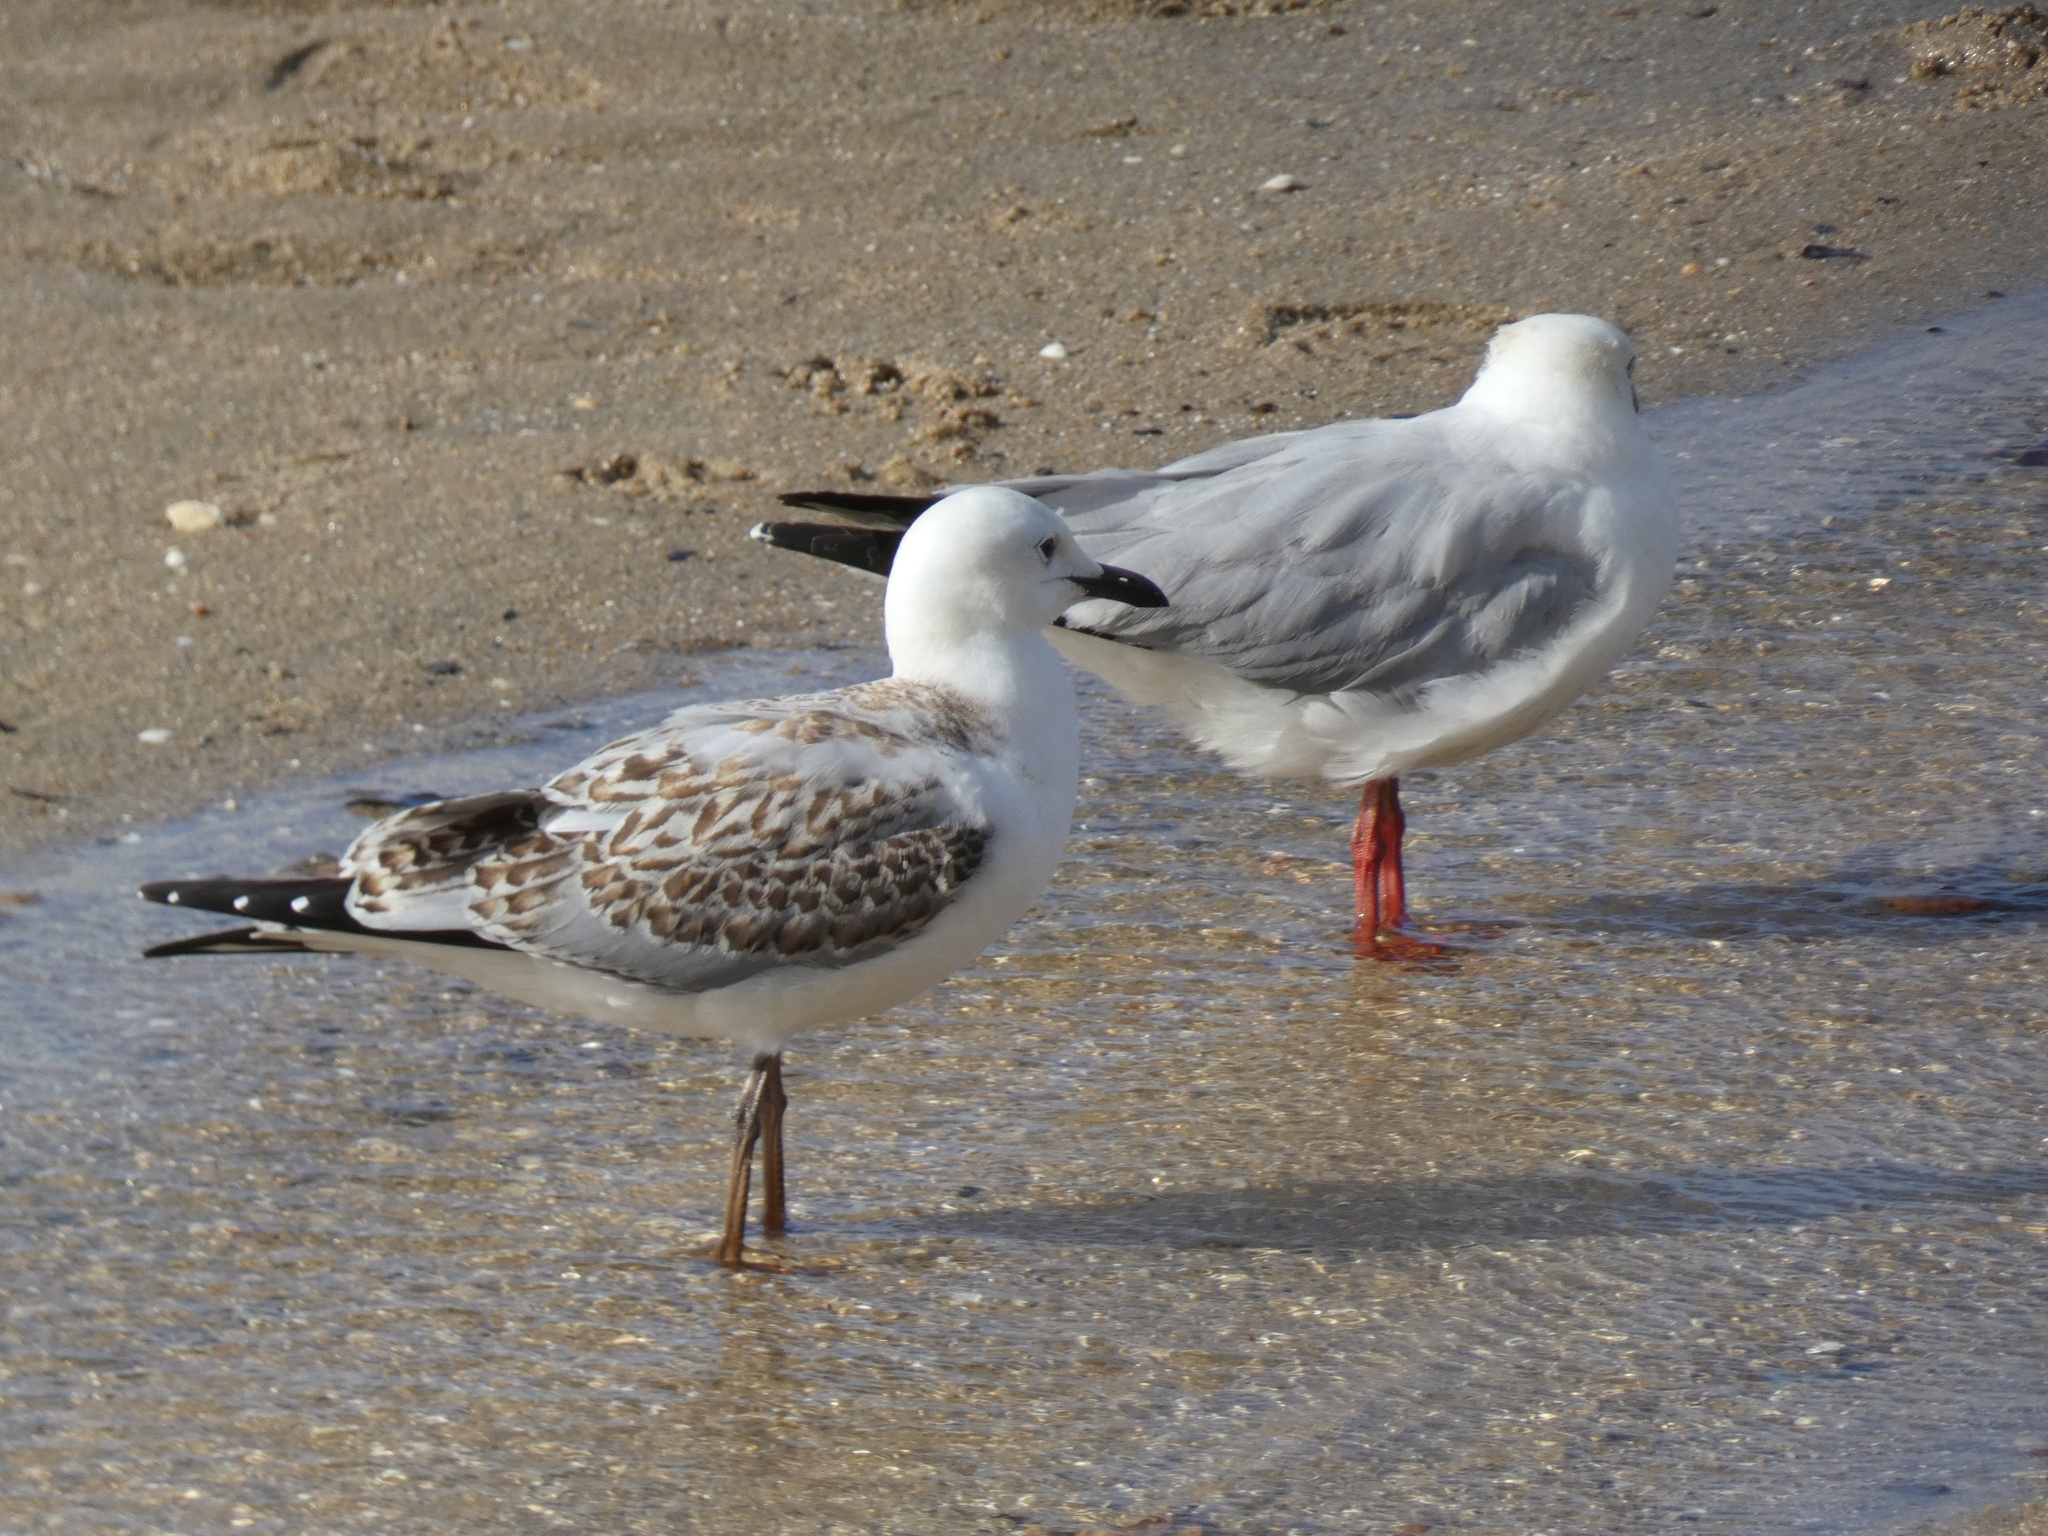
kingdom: Animalia
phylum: Chordata
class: Aves
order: Charadriiformes
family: Laridae
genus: Chroicocephalus
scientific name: Chroicocephalus novaehollandiae
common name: Silver gull
